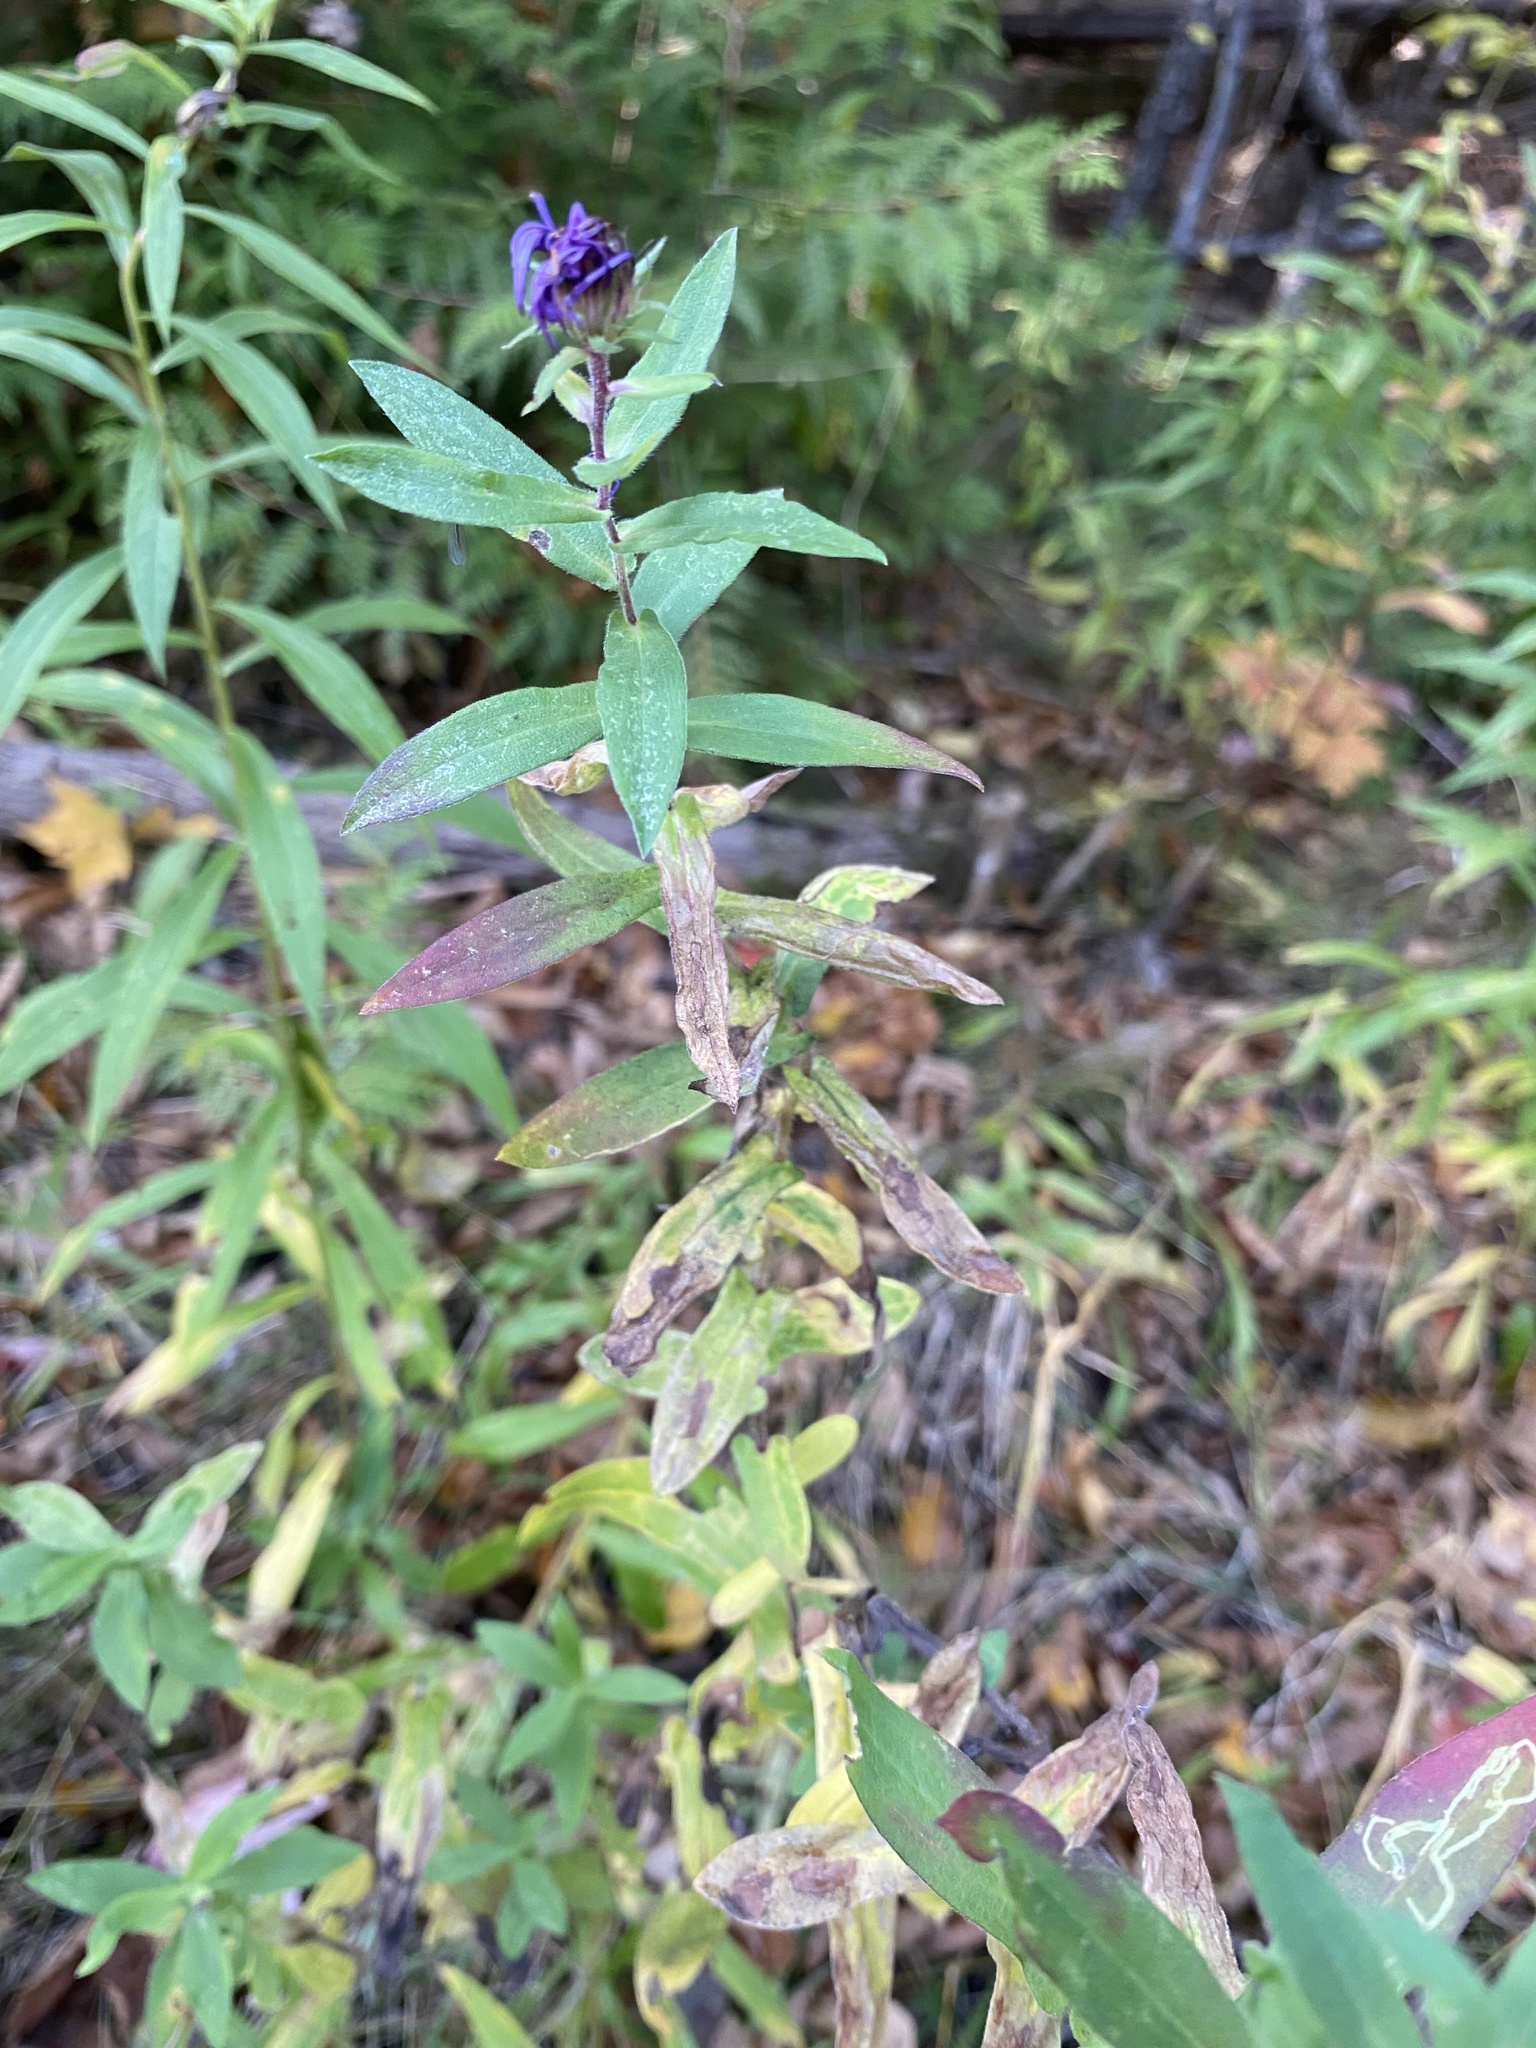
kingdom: Plantae
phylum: Tracheophyta
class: Magnoliopsida
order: Asterales
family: Asteraceae
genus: Symphyotrichum
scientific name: Symphyotrichum novae-angliae
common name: Michaelmas daisy
